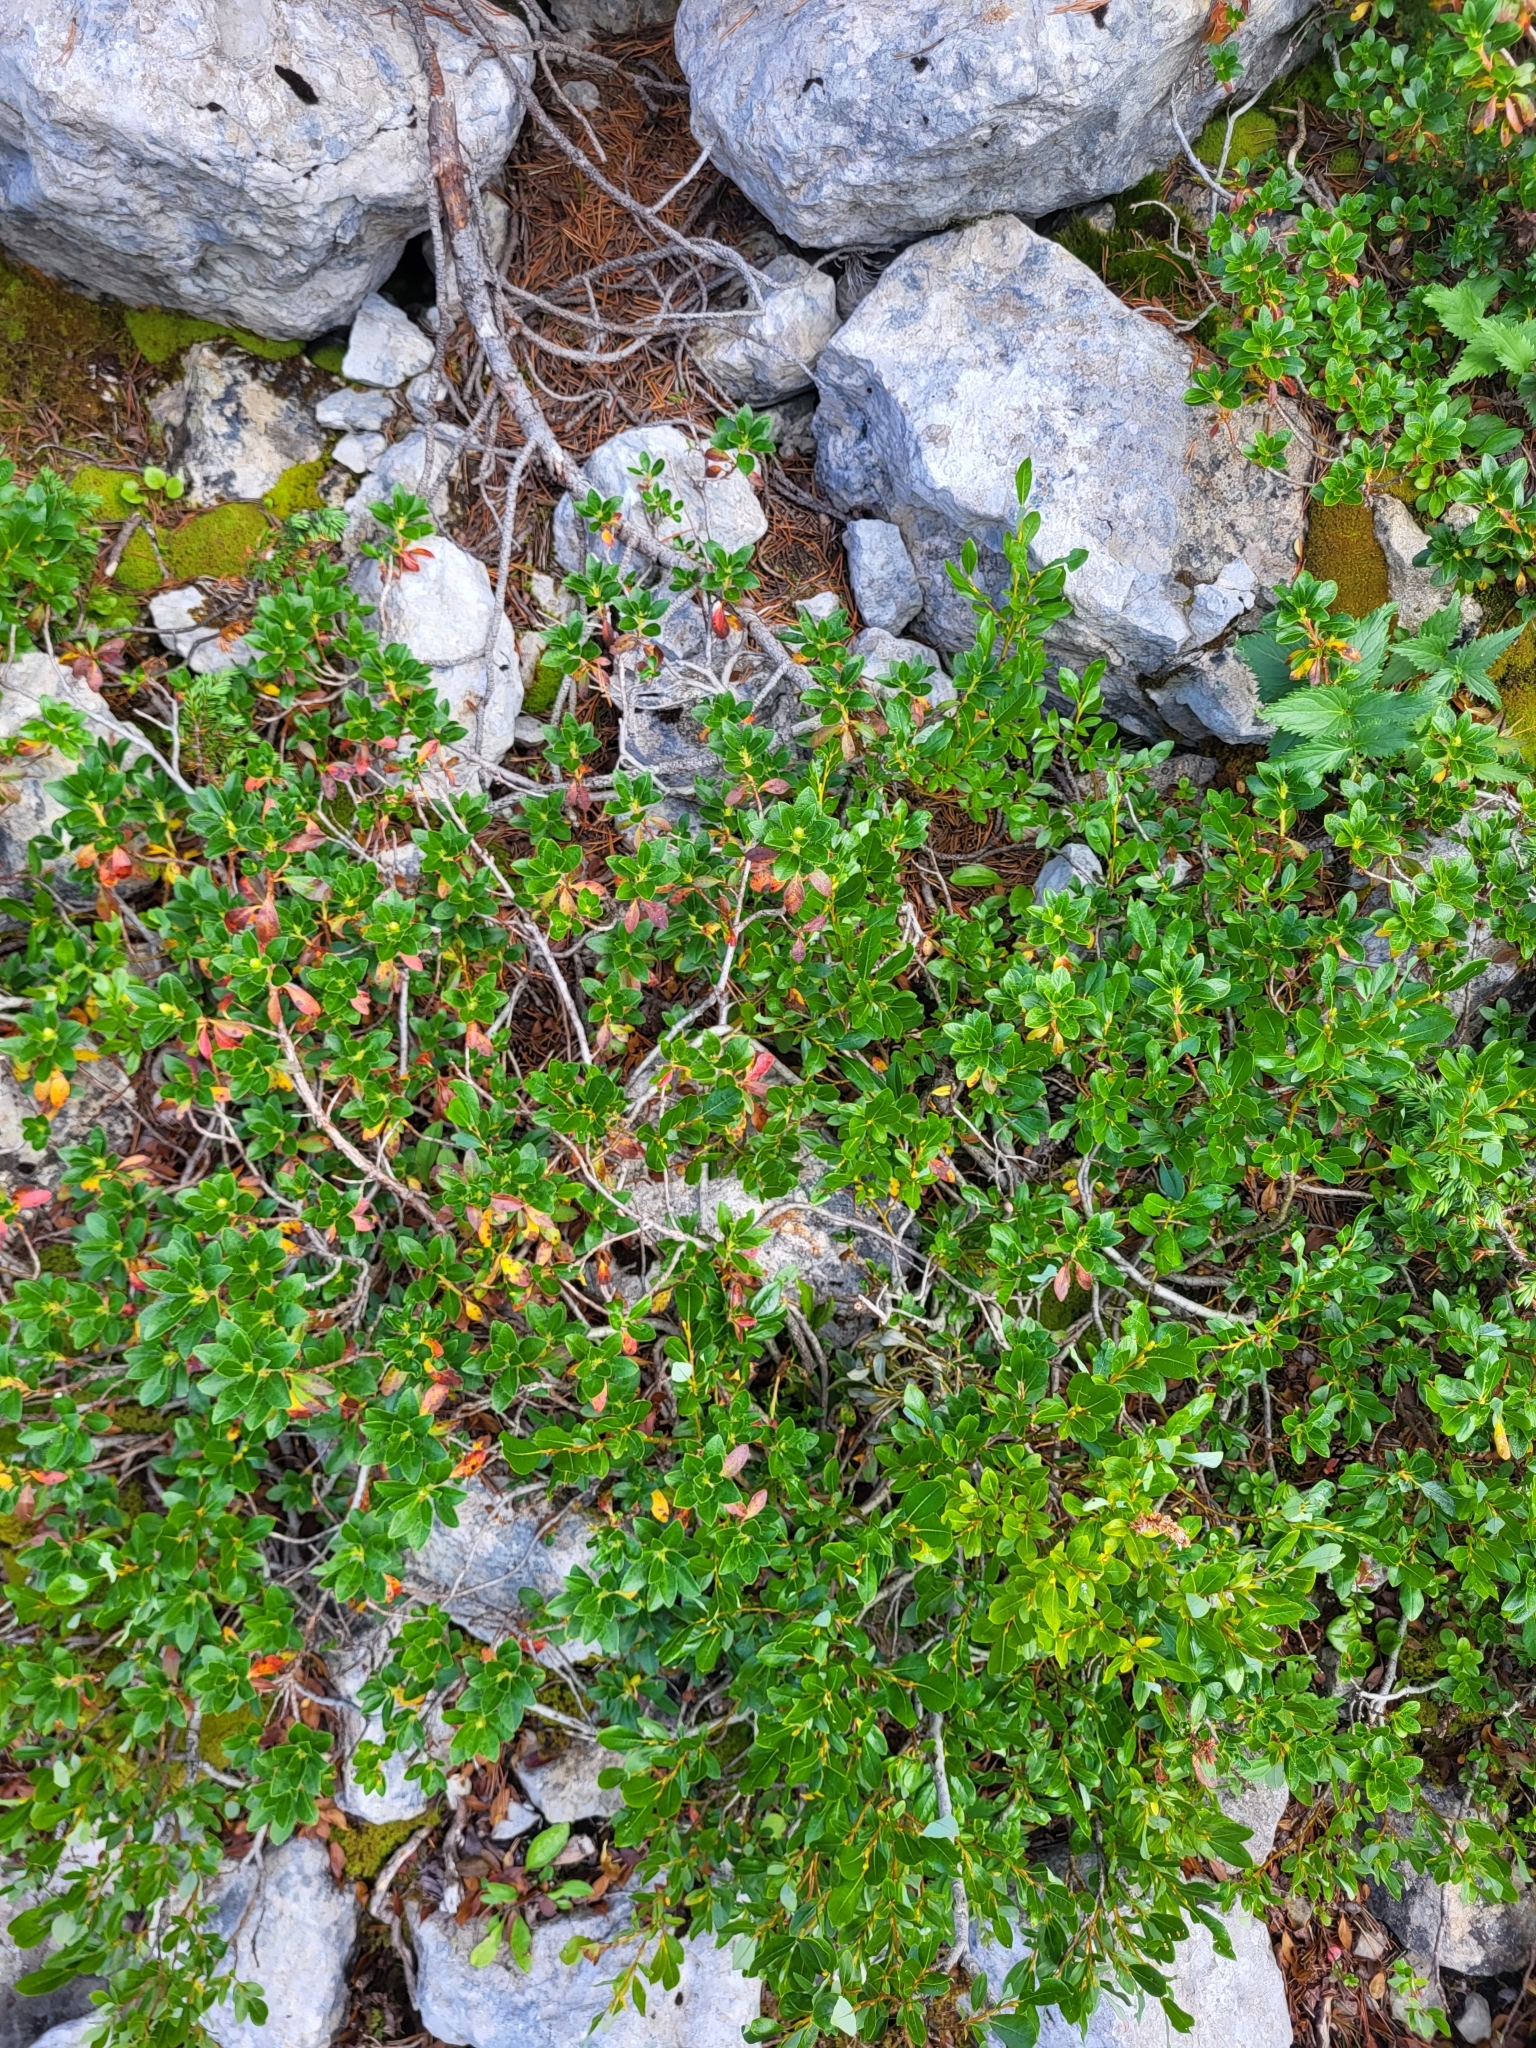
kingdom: Plantae
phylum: Tracheophyta
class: Magnoliopsida
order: Ericales
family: Ericaceae
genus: Rhododendron
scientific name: Rhododendron hirsutum
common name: Hairy alpenrose
